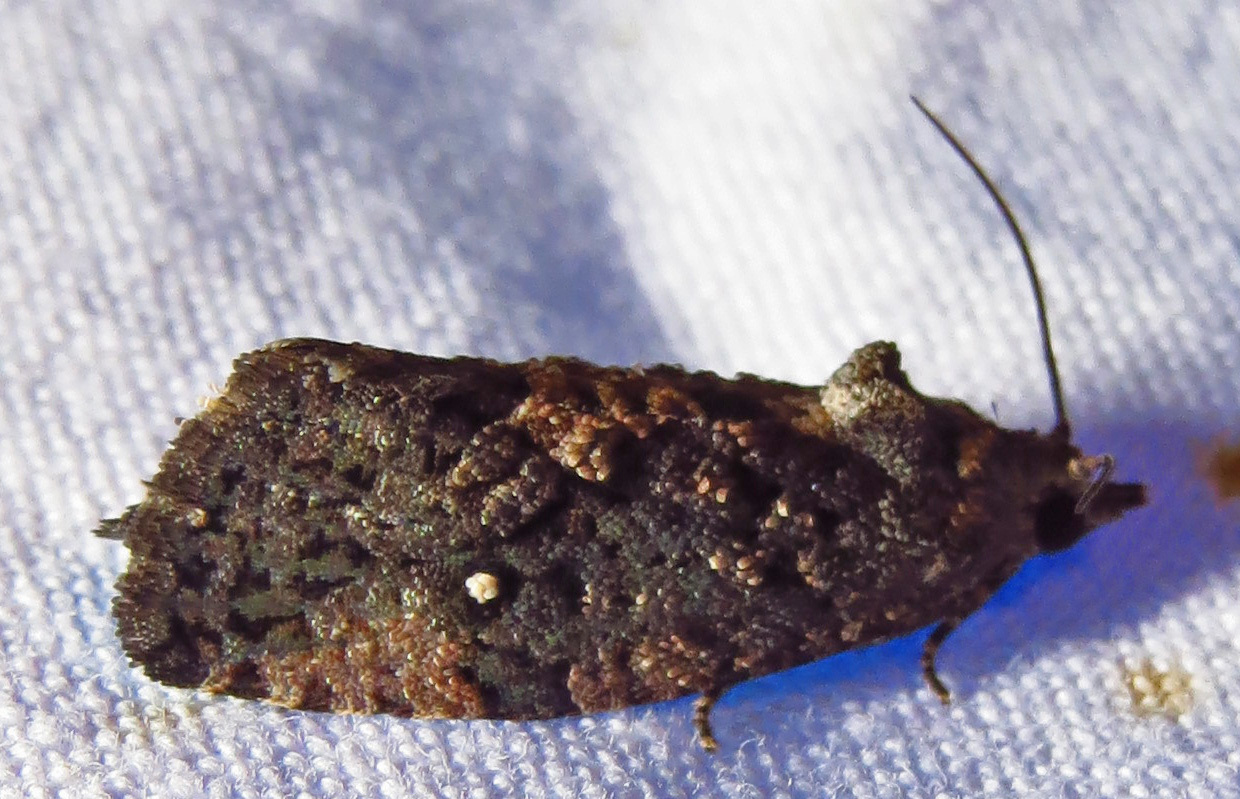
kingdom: Animalia
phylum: Arthropoda
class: Insecta
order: Lepidoptera
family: Tortricidae
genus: Gymnandrosoma
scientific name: Gymnandrosoma punctidiscanum
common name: Dotted ecdytolopha moth
